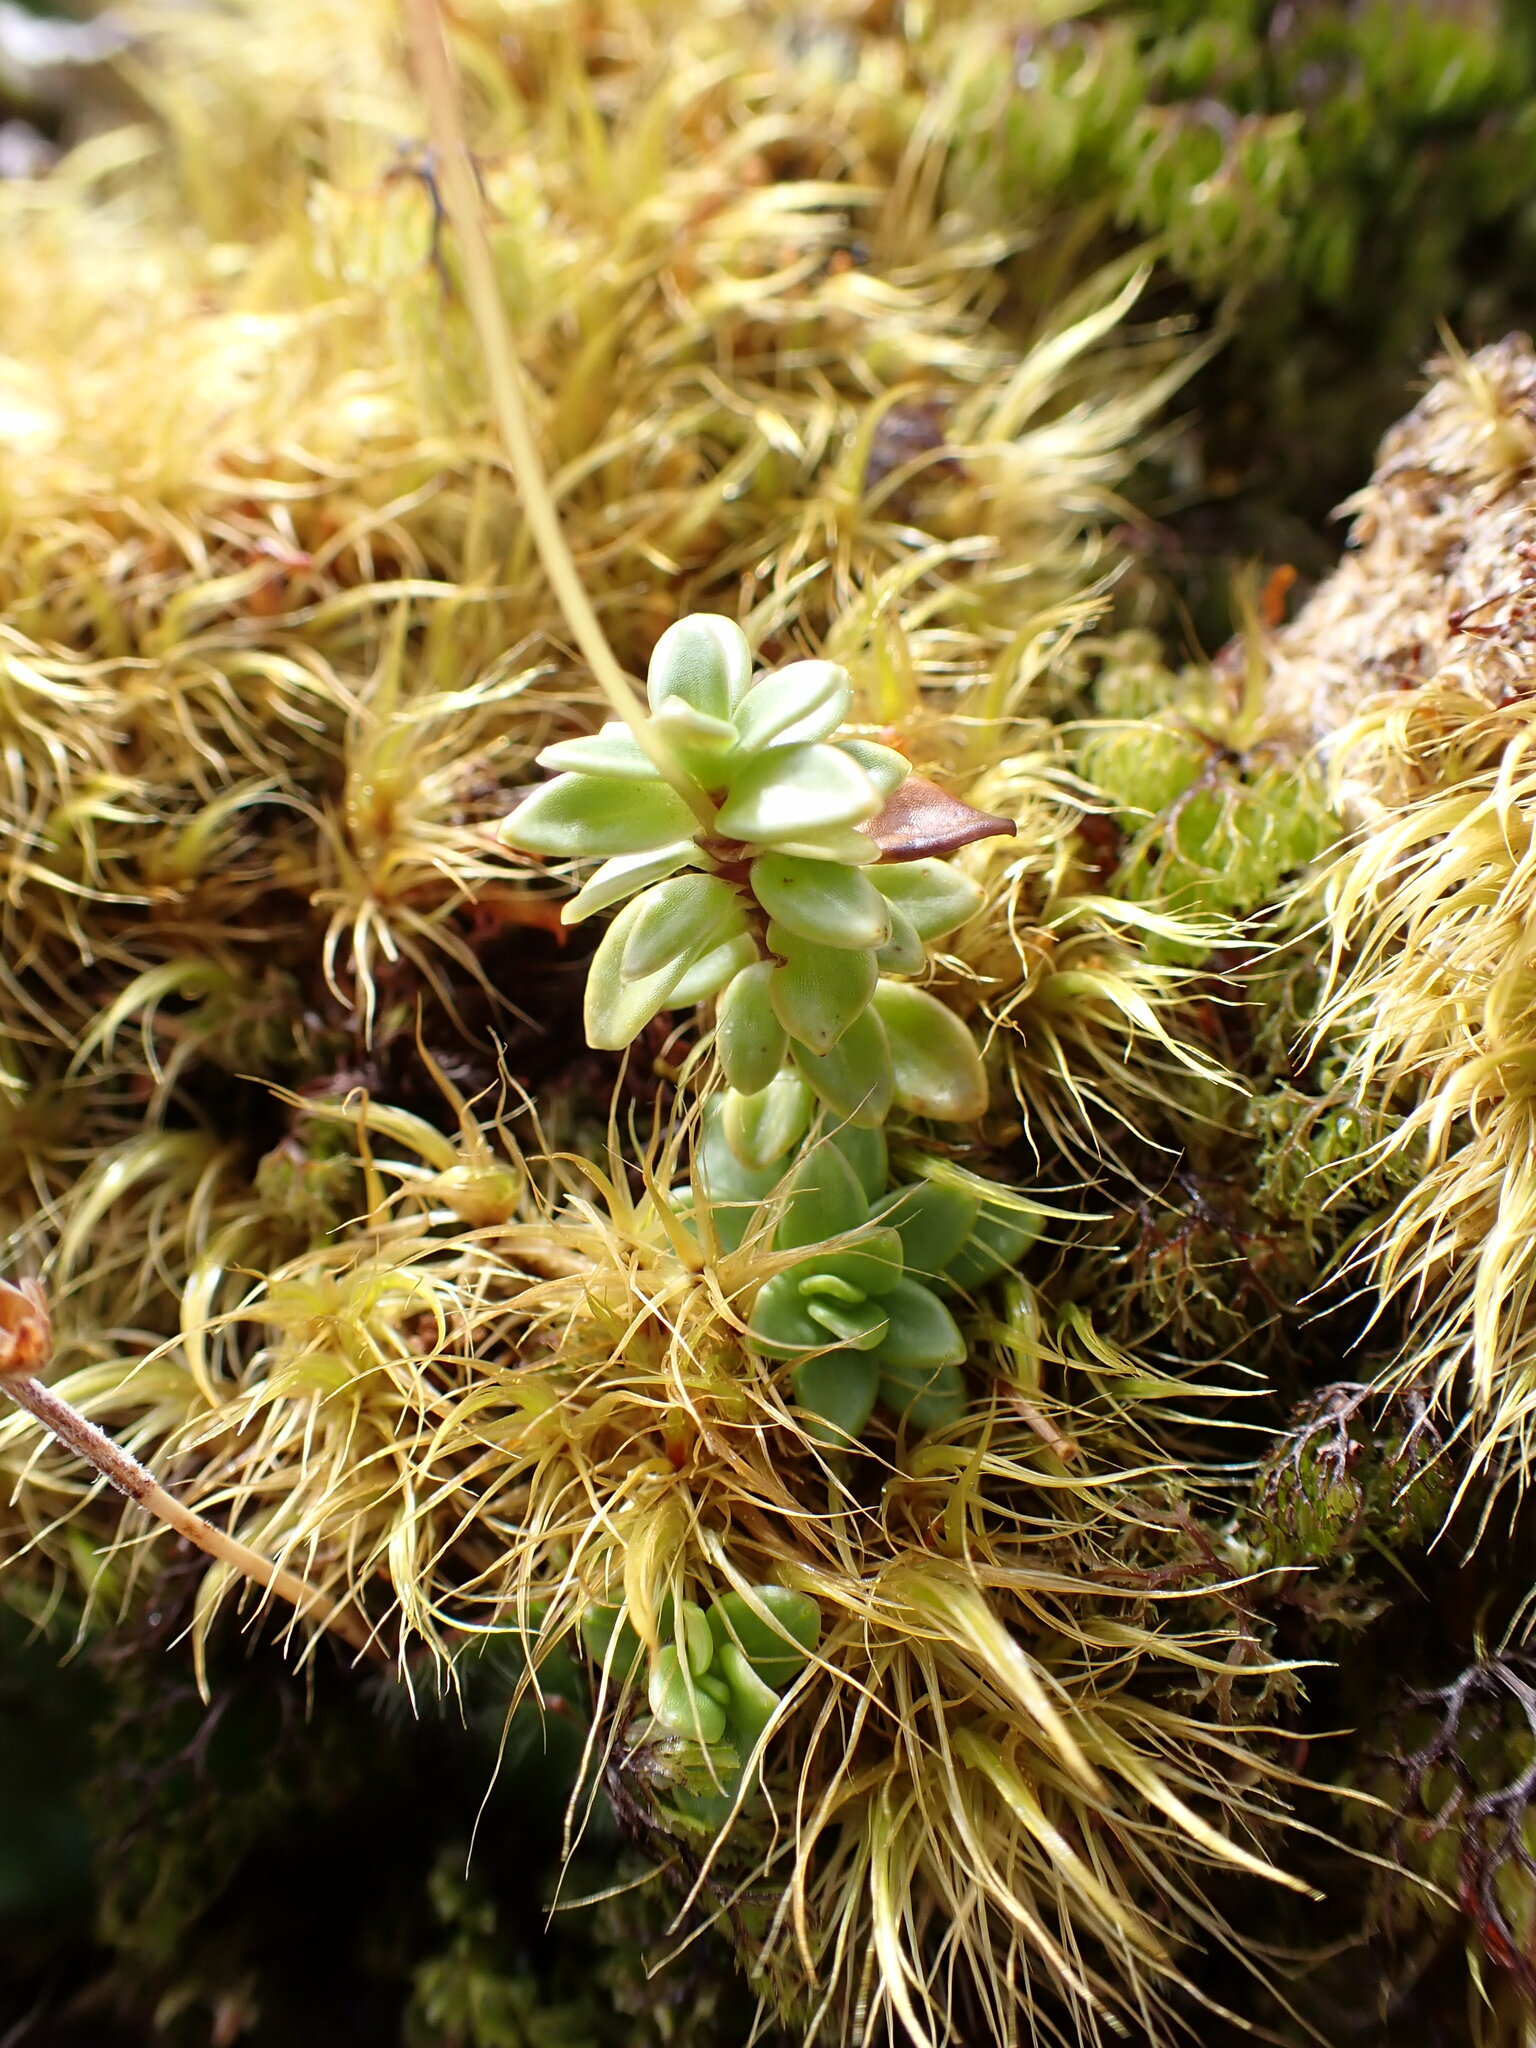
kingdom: Plantae
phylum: Tracheophyta
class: Magnoliopsida
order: Asterales
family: Stylidiaceae
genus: Forstera
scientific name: Forstera tenella
